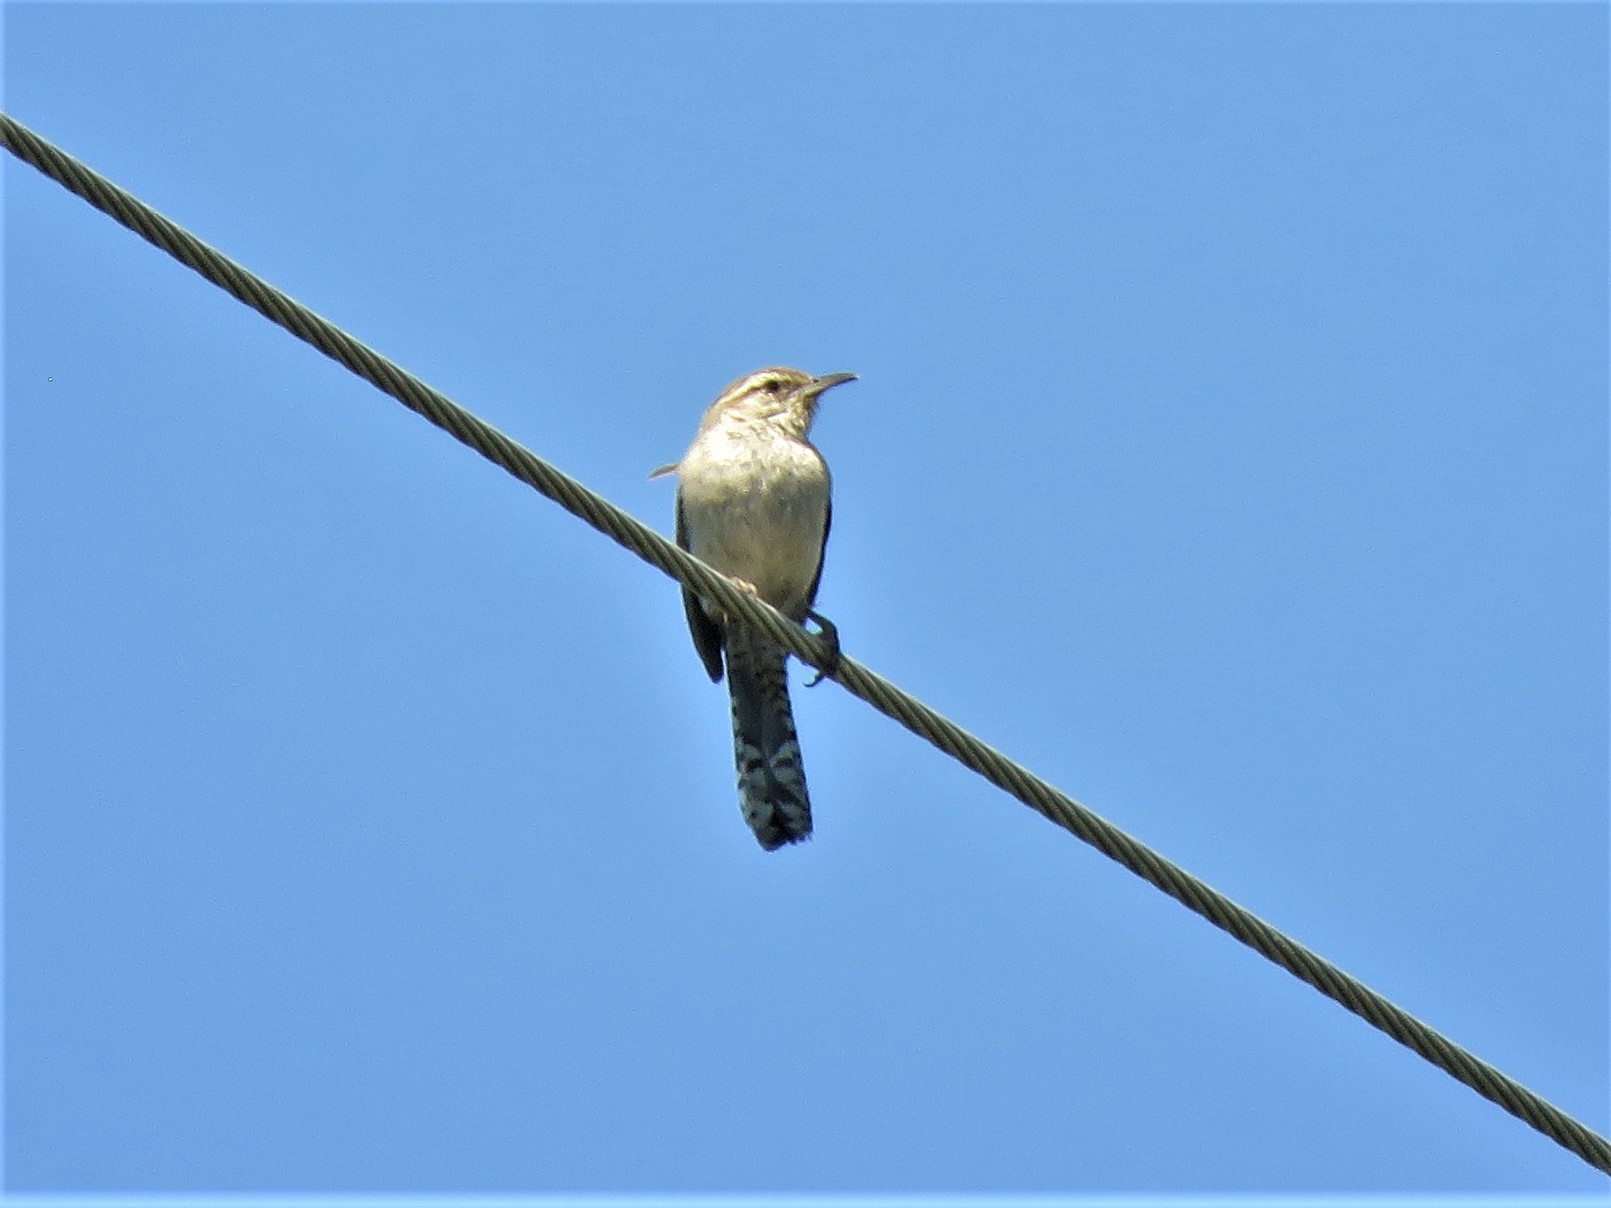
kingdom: Animalia
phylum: Chordata
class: Aves
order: Passeriformes
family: Troglodytidae
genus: Thryomanes
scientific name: Thryomanes bewickii
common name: Bewick's wren
